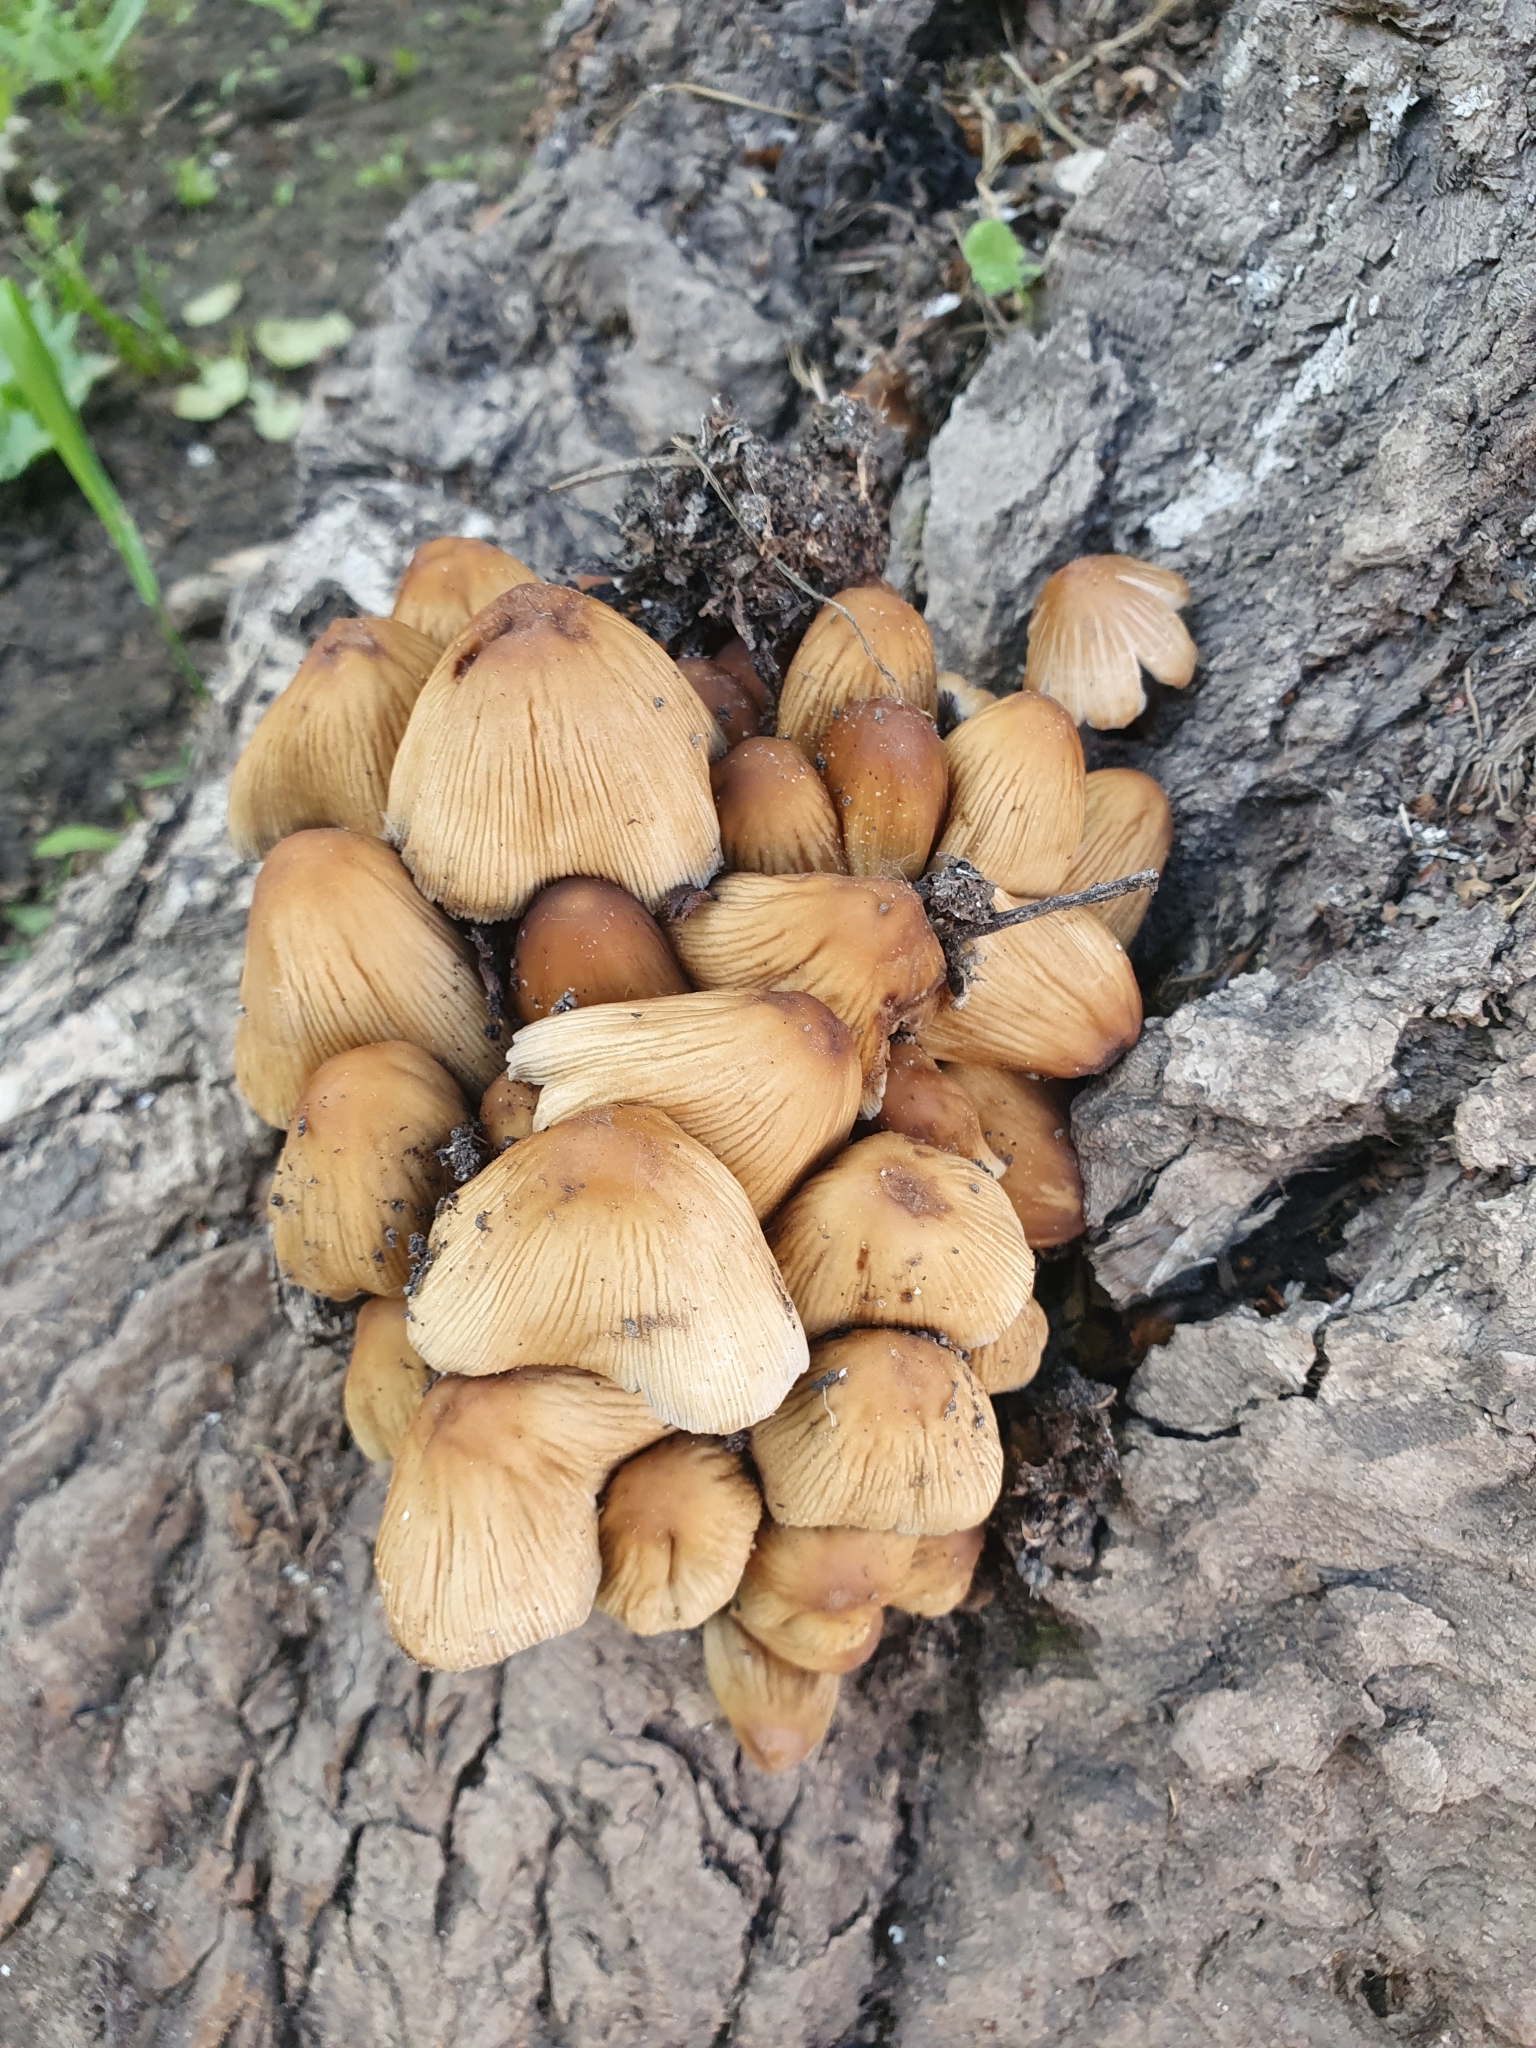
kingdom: Fungi
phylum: Basidiomycota
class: Agaricomycetes
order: Agaricales
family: Psathyrellaceae
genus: Coprinellus
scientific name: Coprinellus micaceus
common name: Glistening ink-cap
